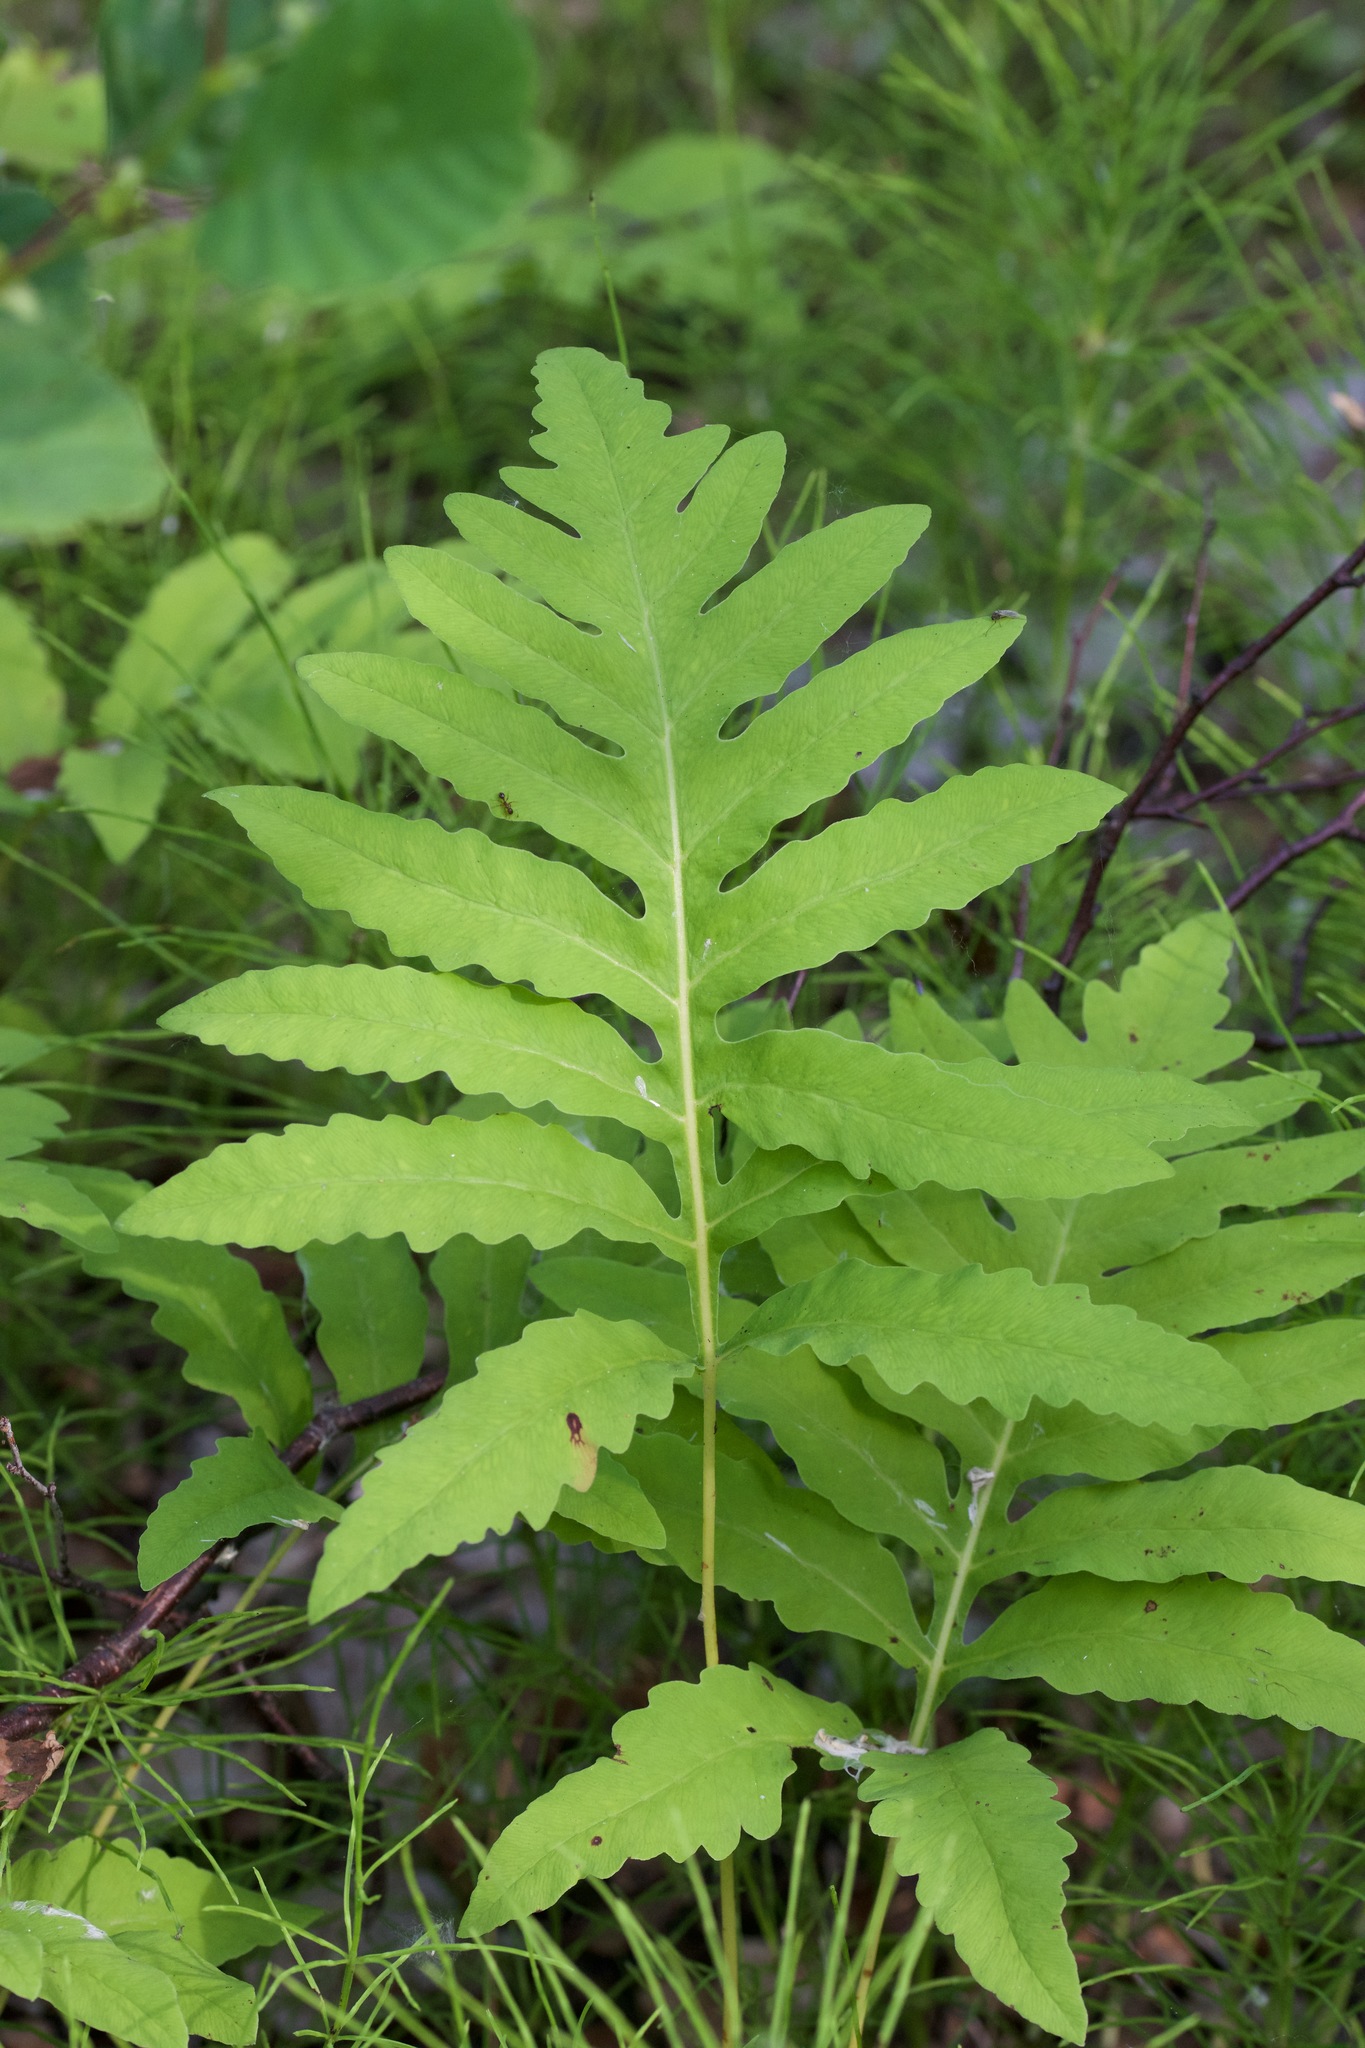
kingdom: Plantae
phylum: Tracheophyta
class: Polypodiopsida
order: Polypodiales
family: Onocleaceae
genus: Onoclea
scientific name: Onoclea sensibilis
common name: Sensitive fern
